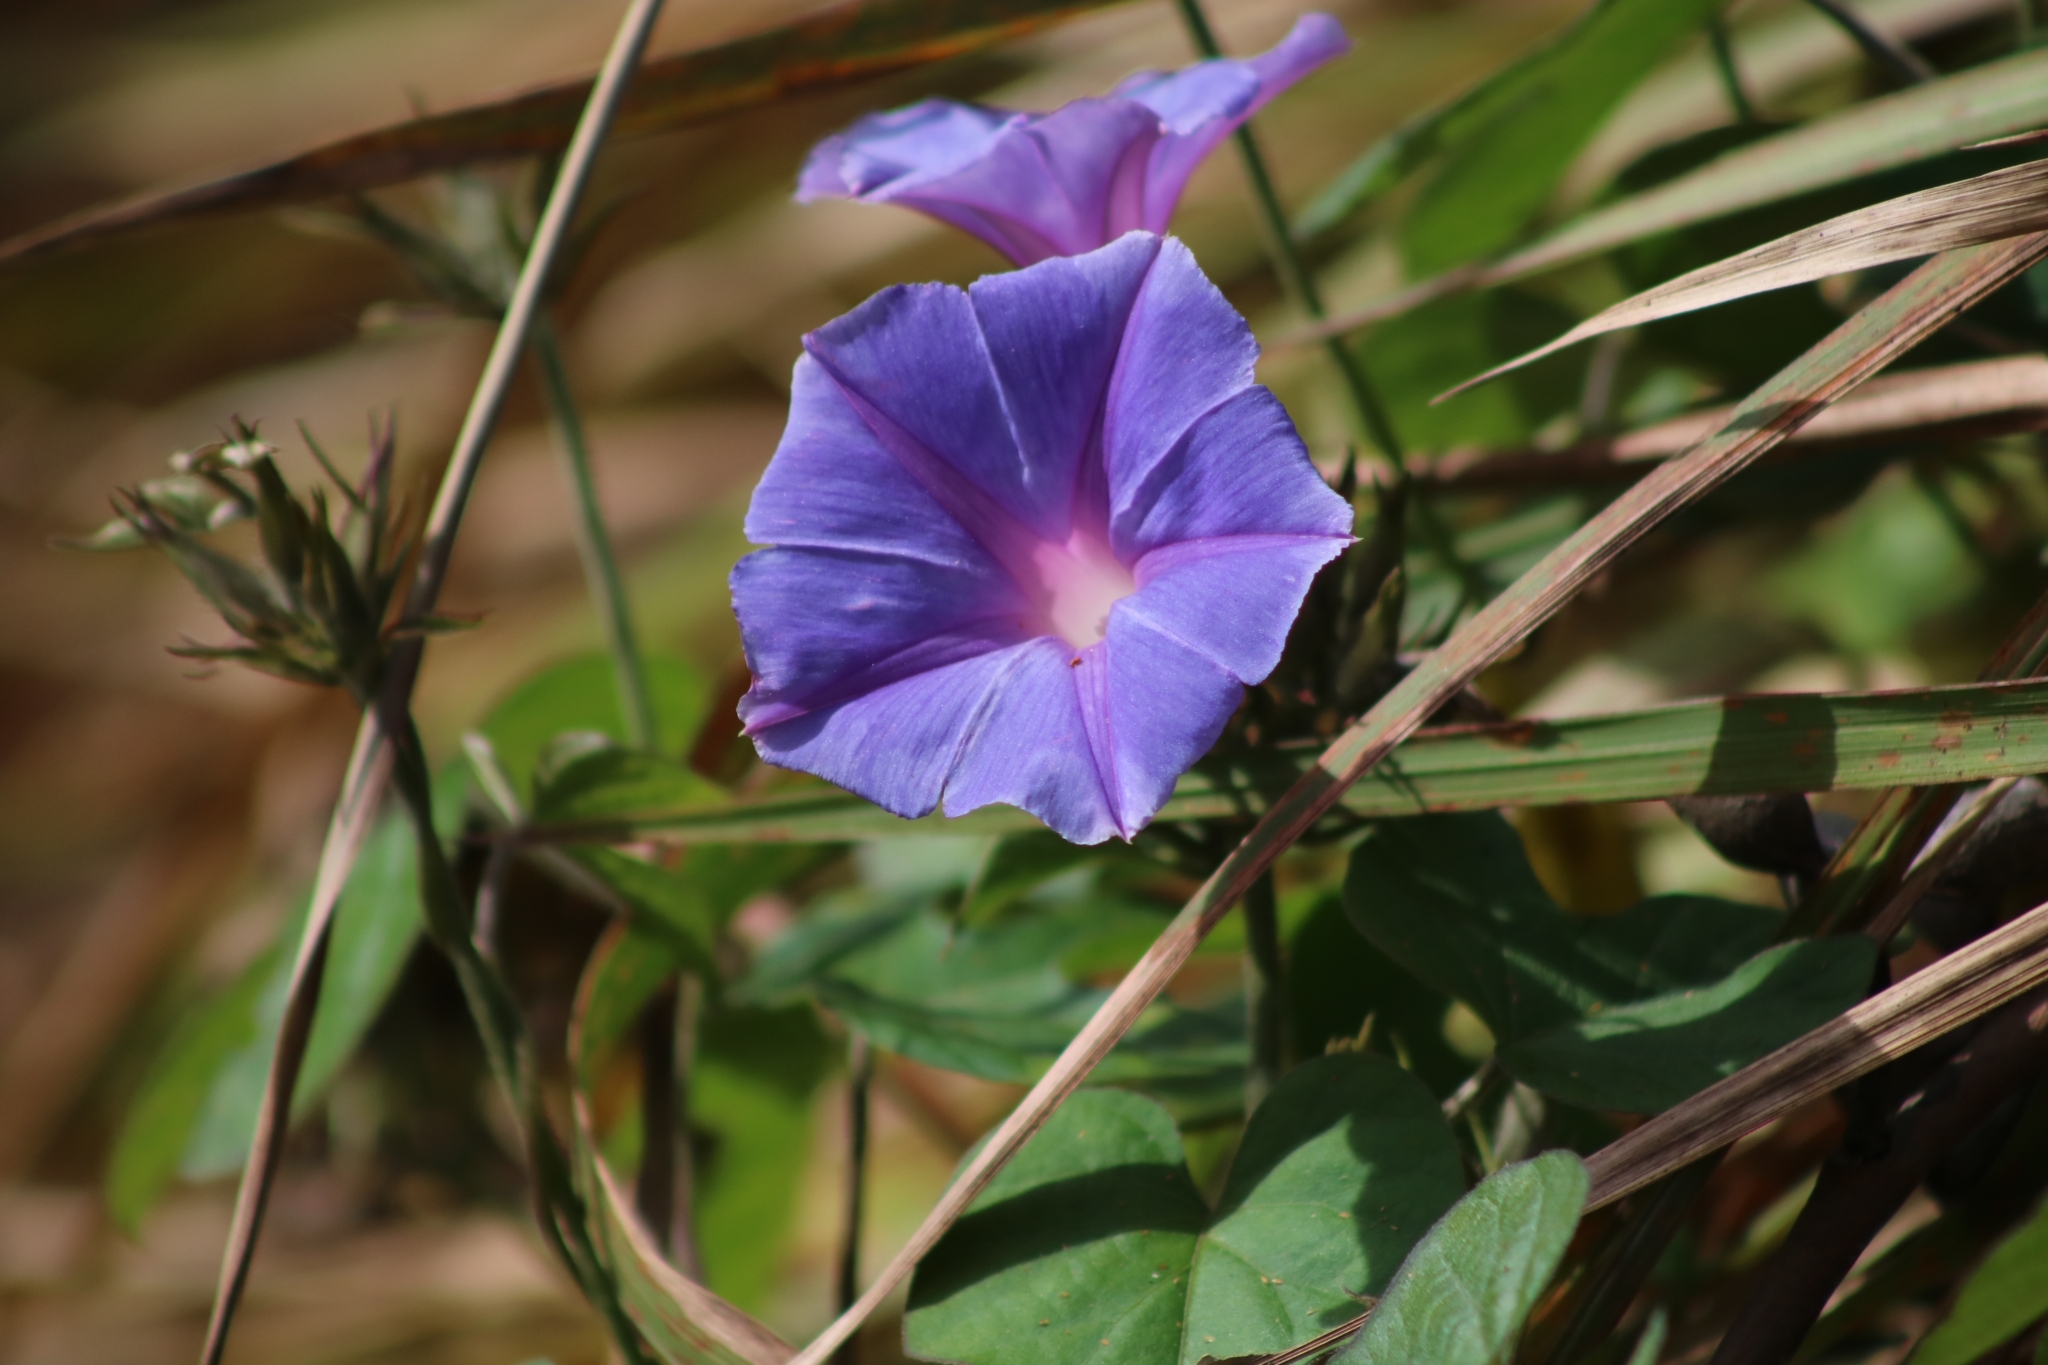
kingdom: Plantae
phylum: Tracheophyta
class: Magnoliopsida
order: Solanales
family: Convolvulaceae
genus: Ipomoea
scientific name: Ipomoea indica
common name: Blue dawnflower
